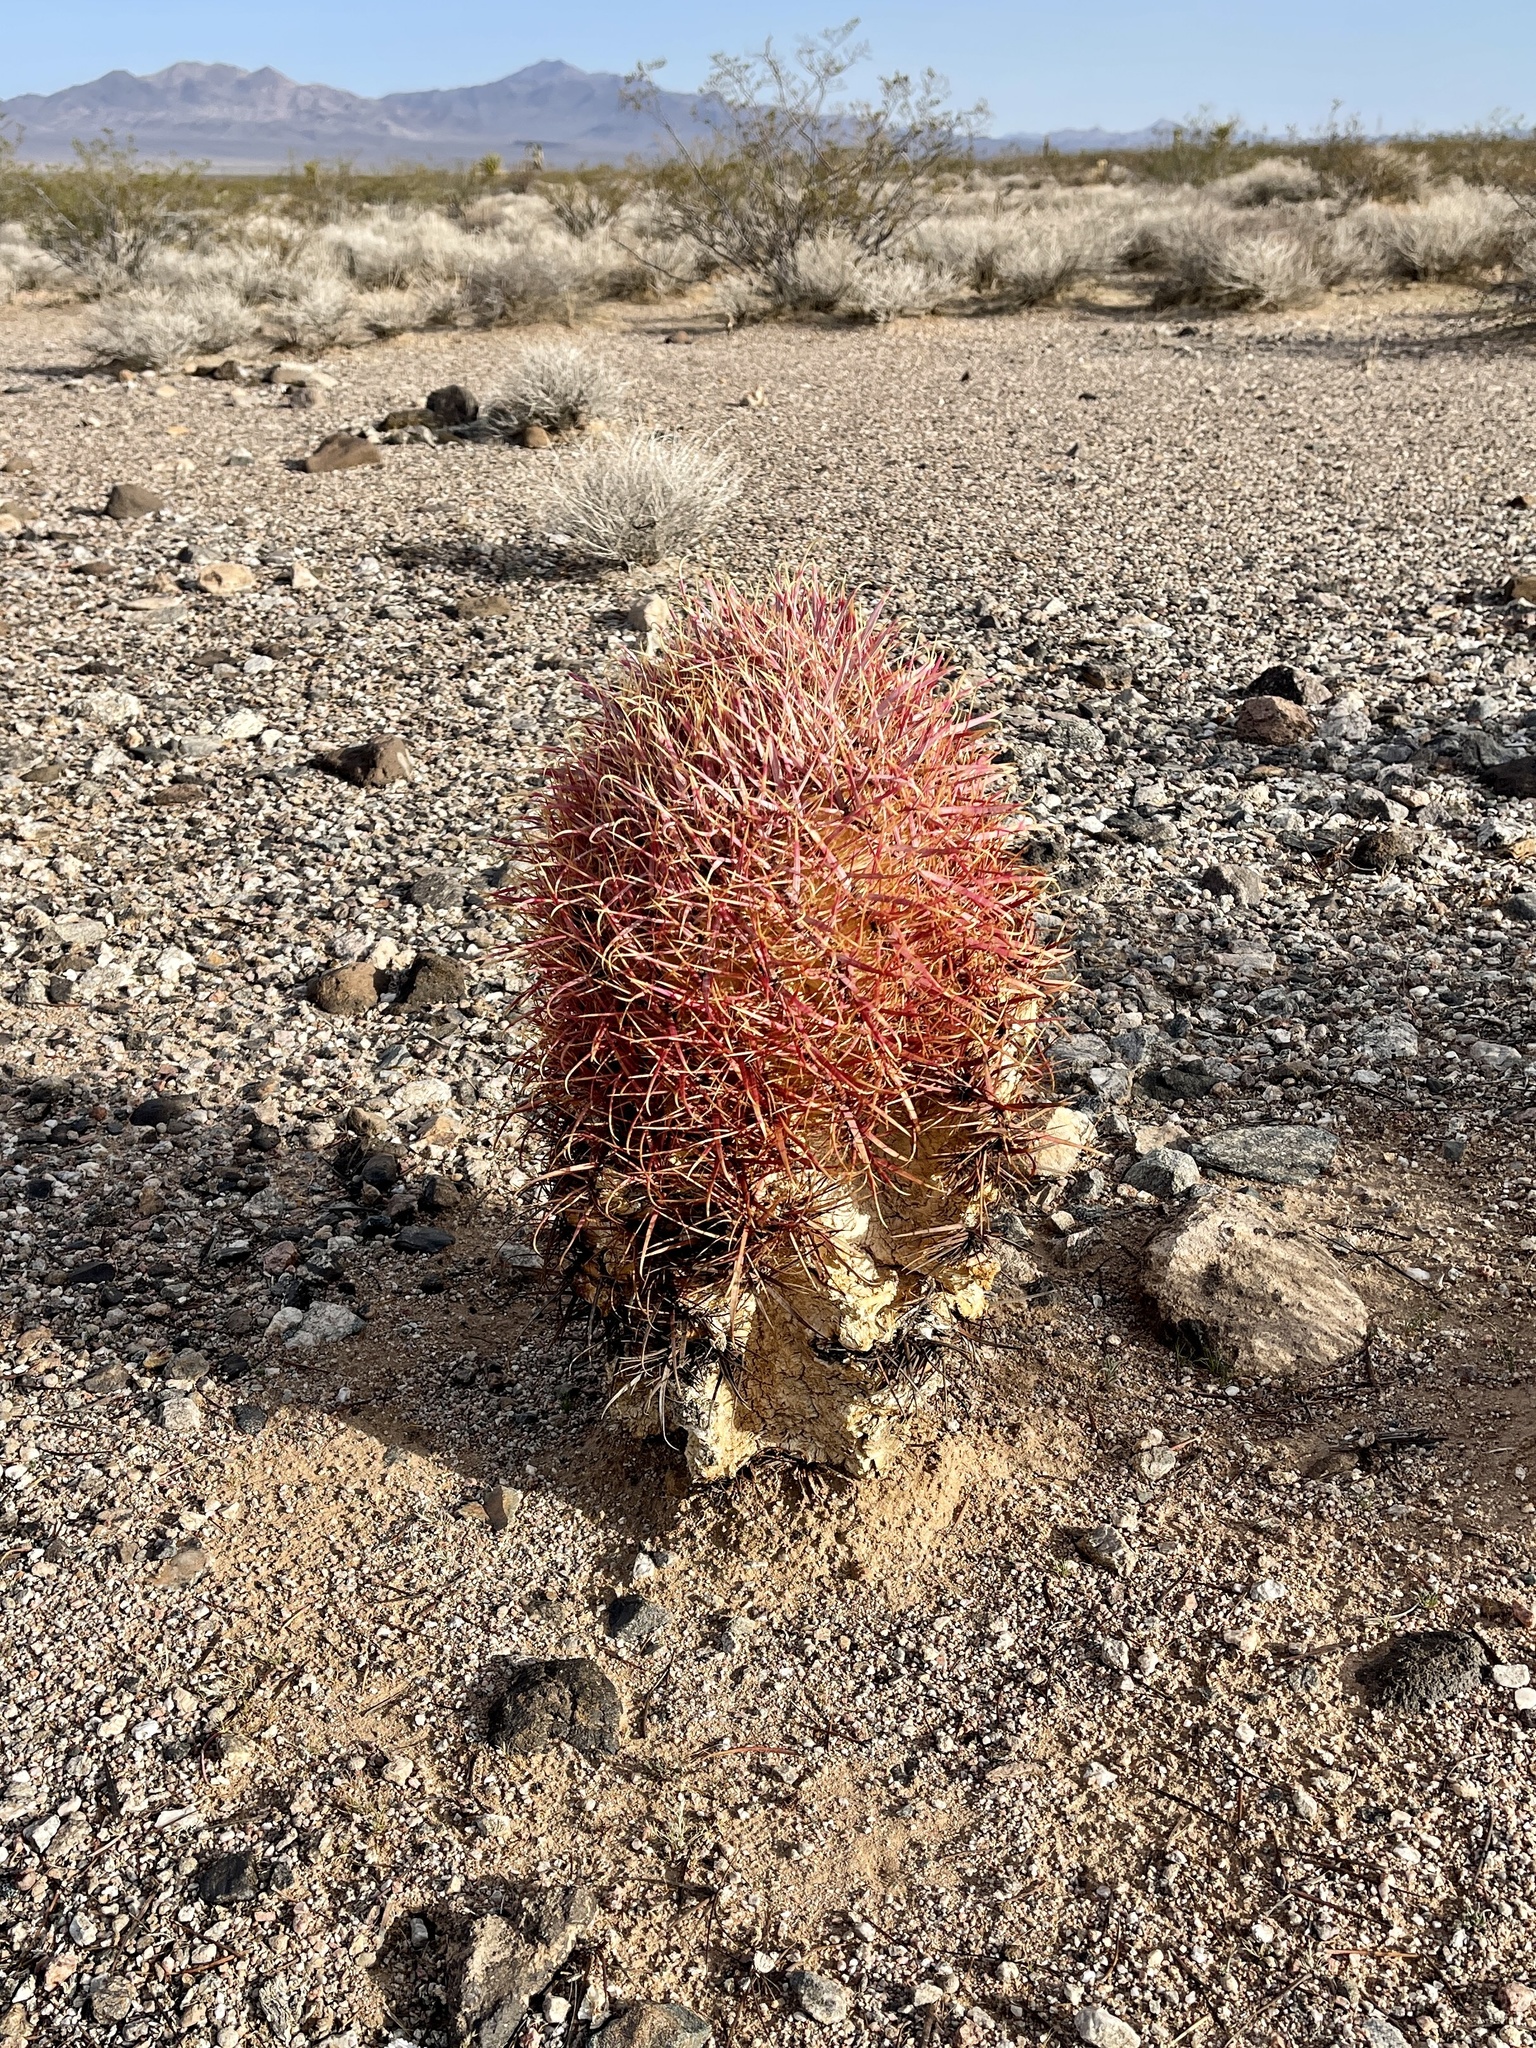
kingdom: Plantae
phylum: Tracheophyta
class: Magnoliopsida
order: Caryophyllales
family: Cactaceae
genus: Ferocactus
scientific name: Ferocactus cylindraceus
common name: California barrel cactus
